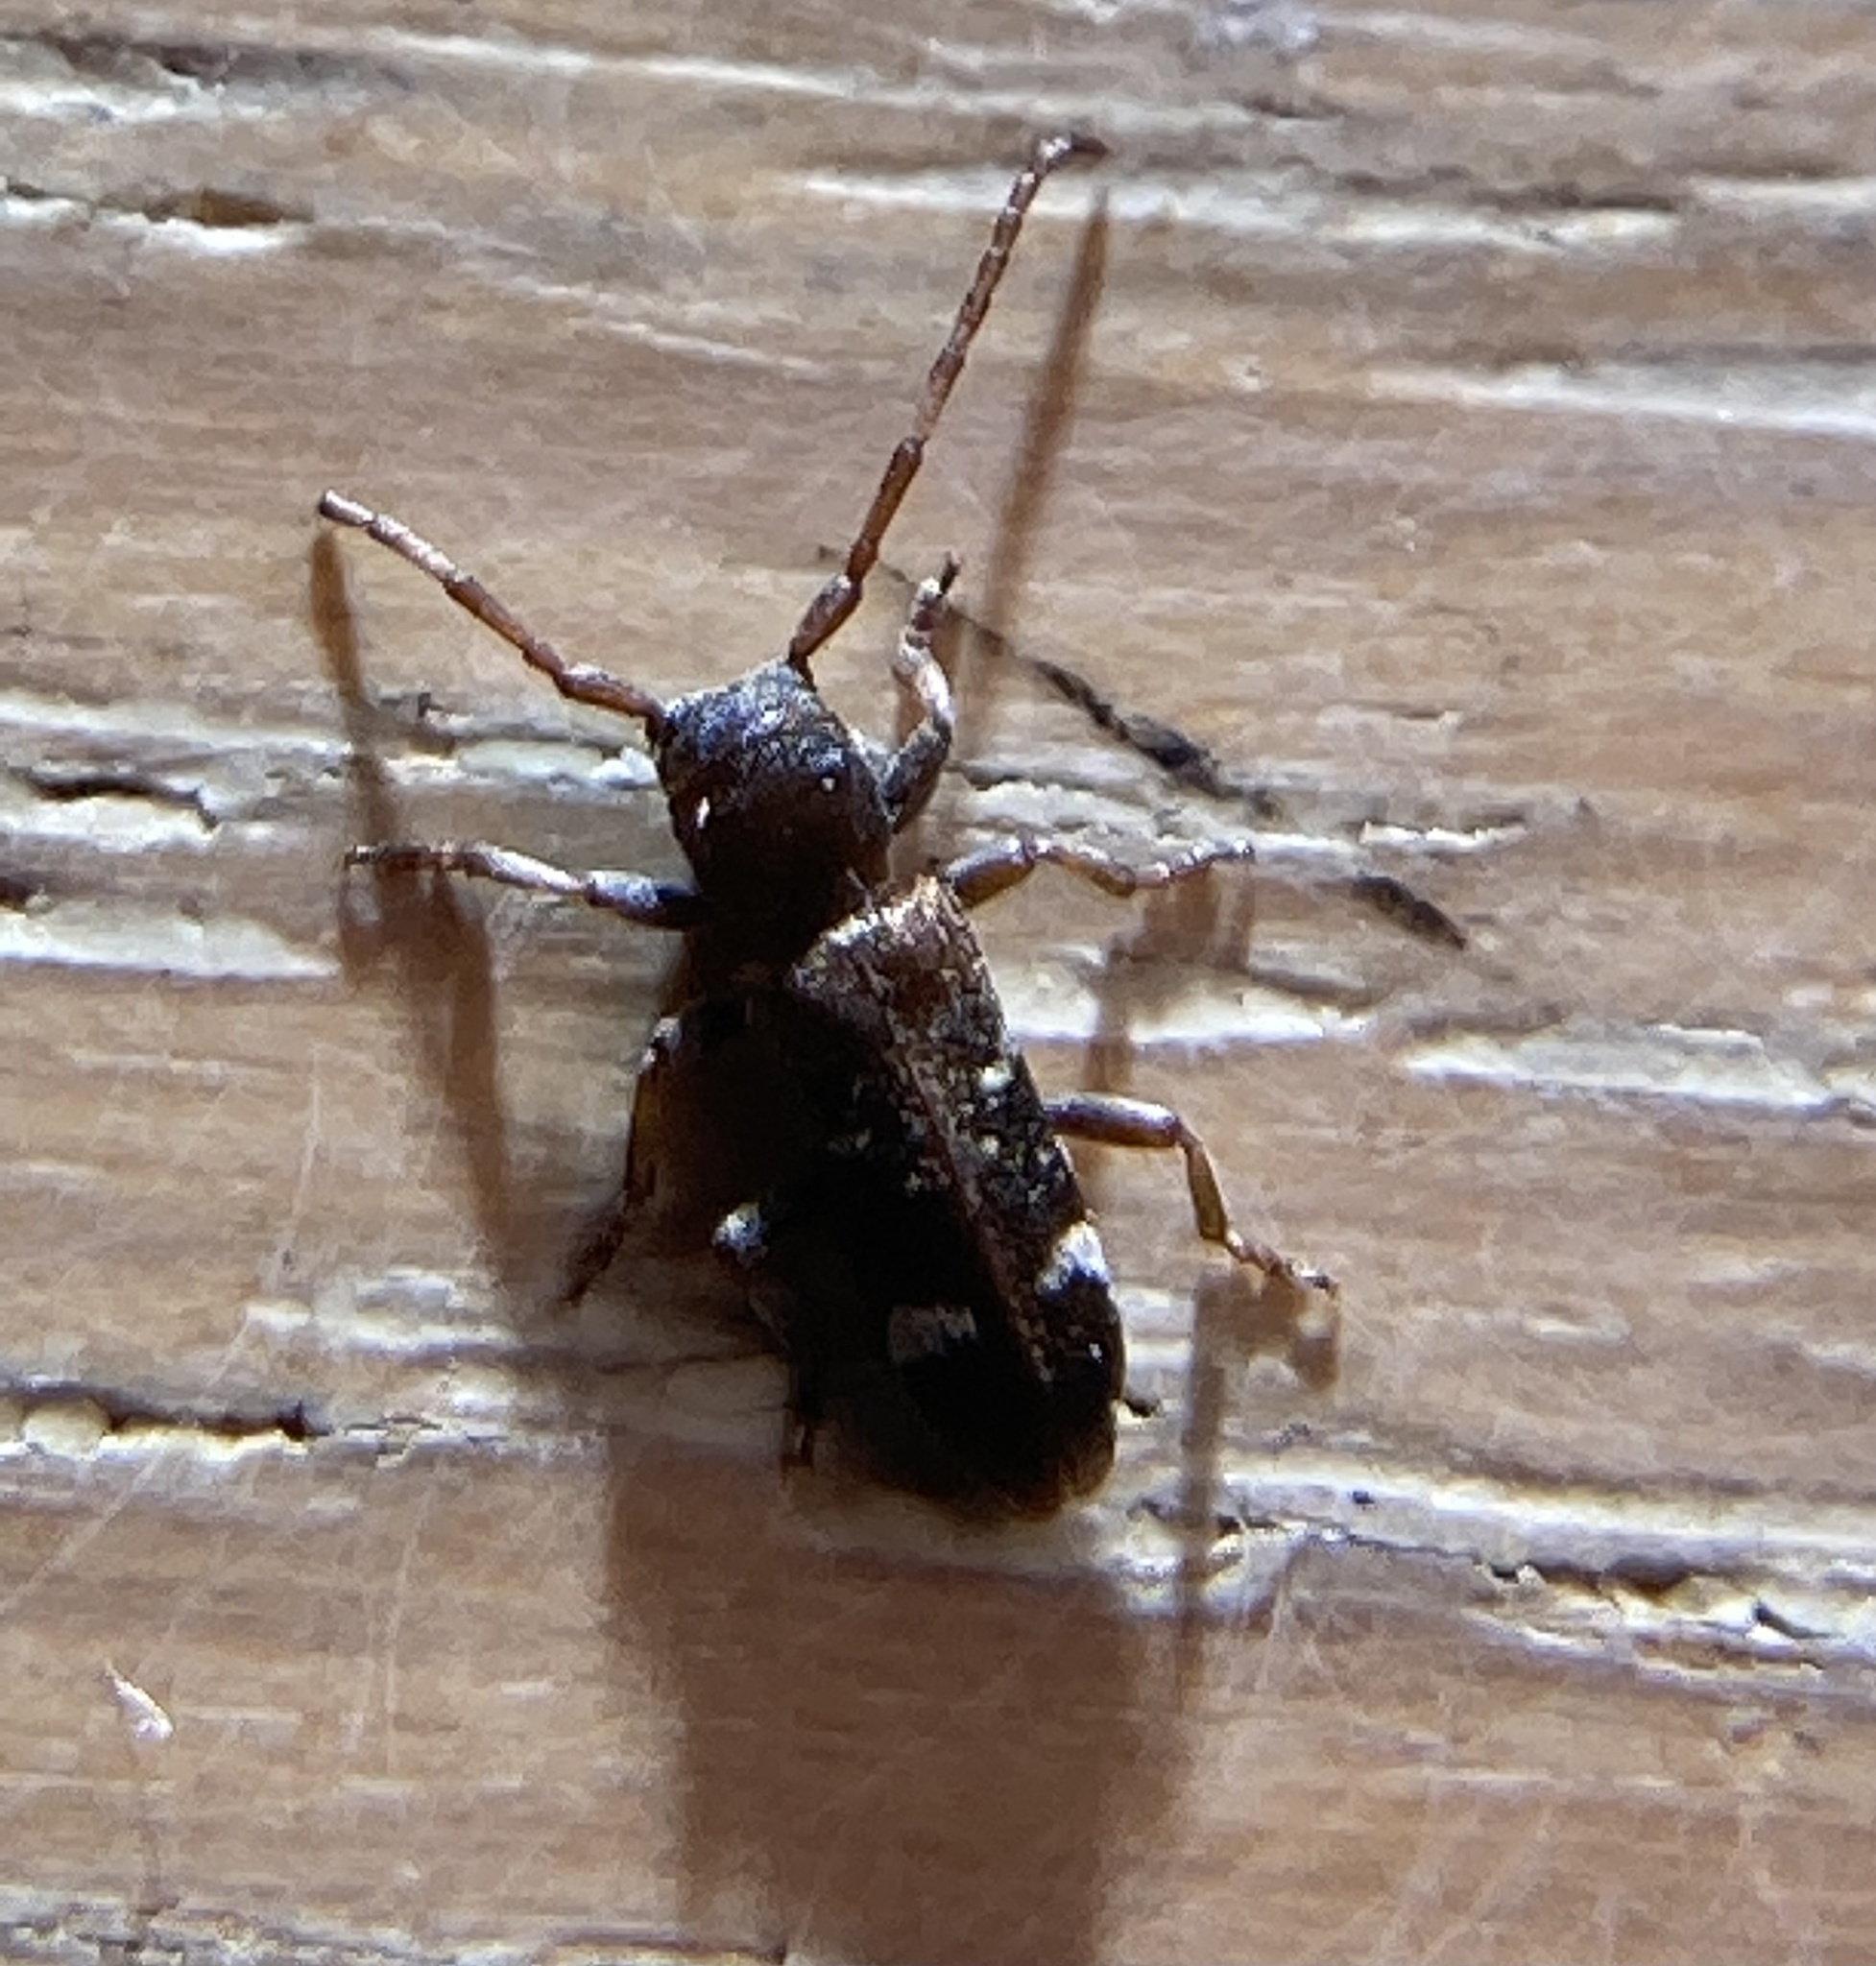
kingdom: Animalia
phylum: Arthropoda
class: Insecta
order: Coleoptera
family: Cerambycidae
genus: Psenocerus
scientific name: Psenocerus supernotatus
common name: Currant-tip borer
